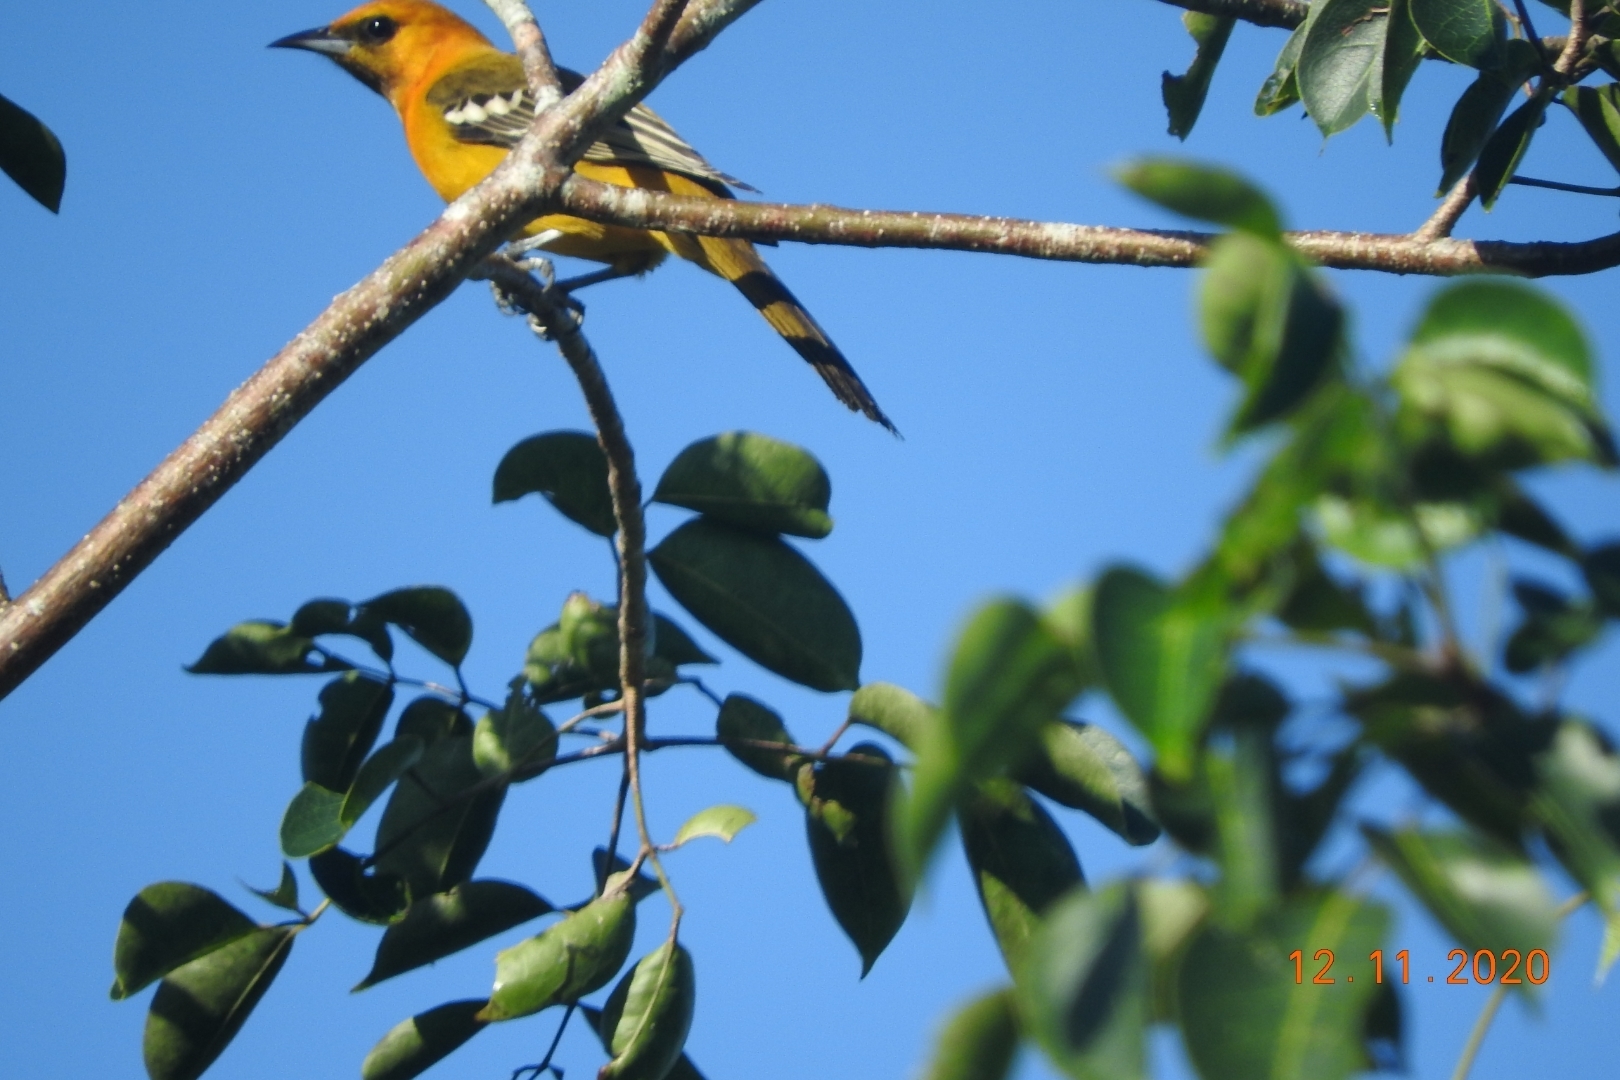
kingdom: Animalia
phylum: Chordata
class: Aves
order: Passeriformes
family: Icteridae
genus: Icterus
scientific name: Icterus cucullatus
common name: Hooded oriole
